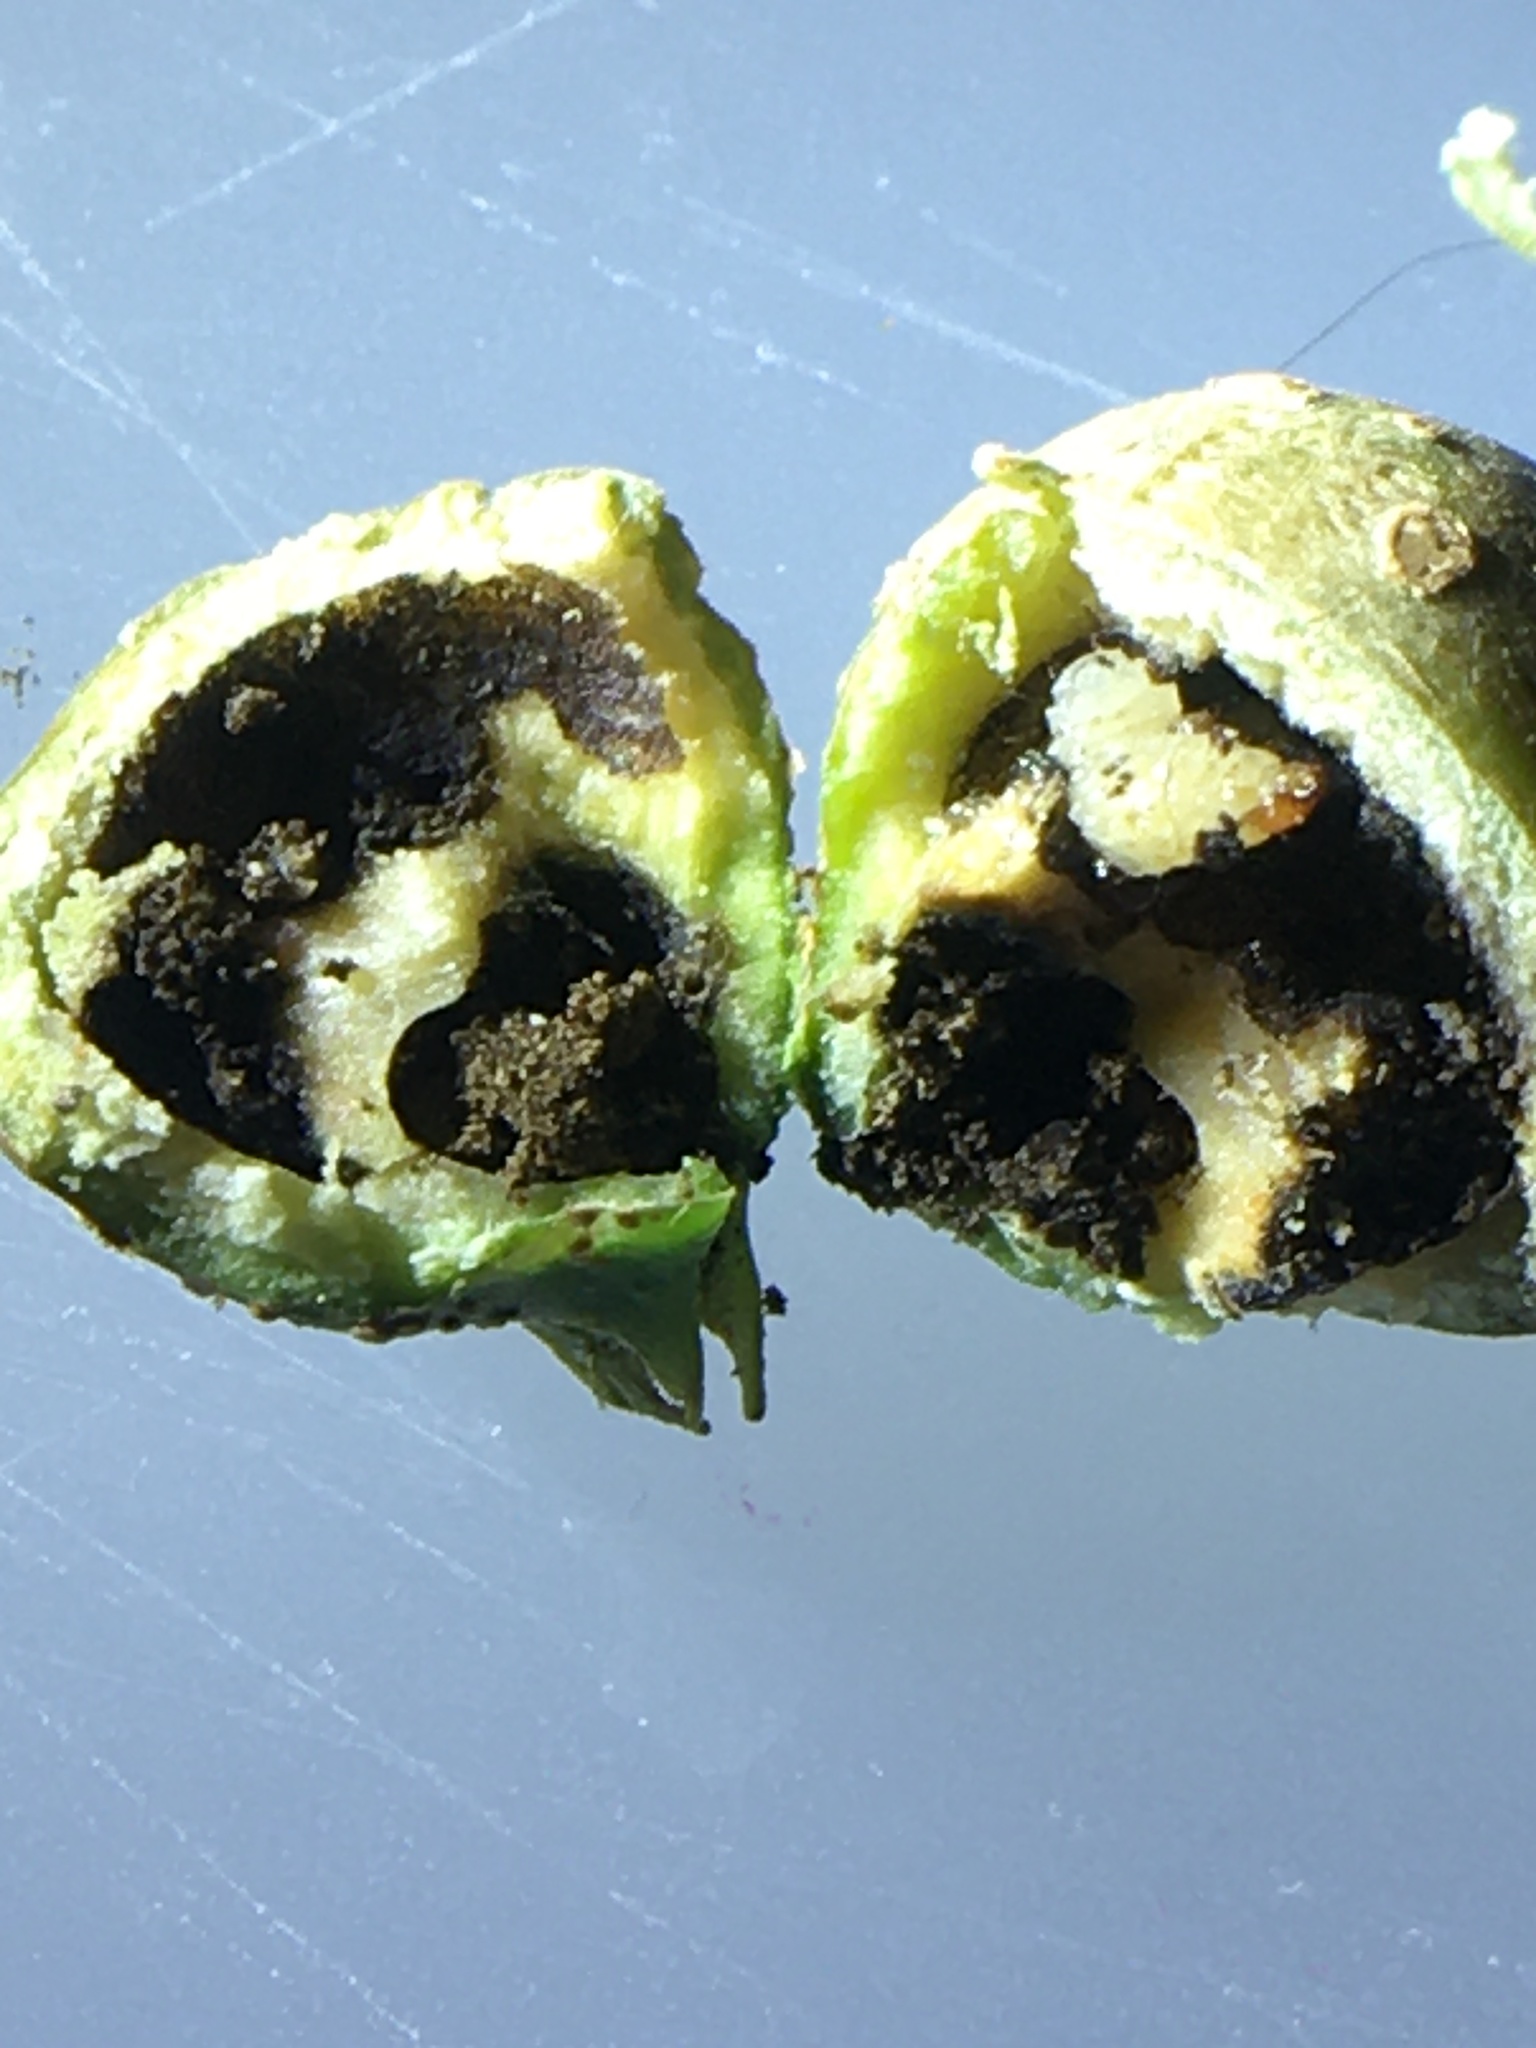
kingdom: Animalia
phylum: Arthropoda
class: Insecta
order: Hemiptera
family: Aphalaridae
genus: Pachypsylla
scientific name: Pachypsylla venusta
